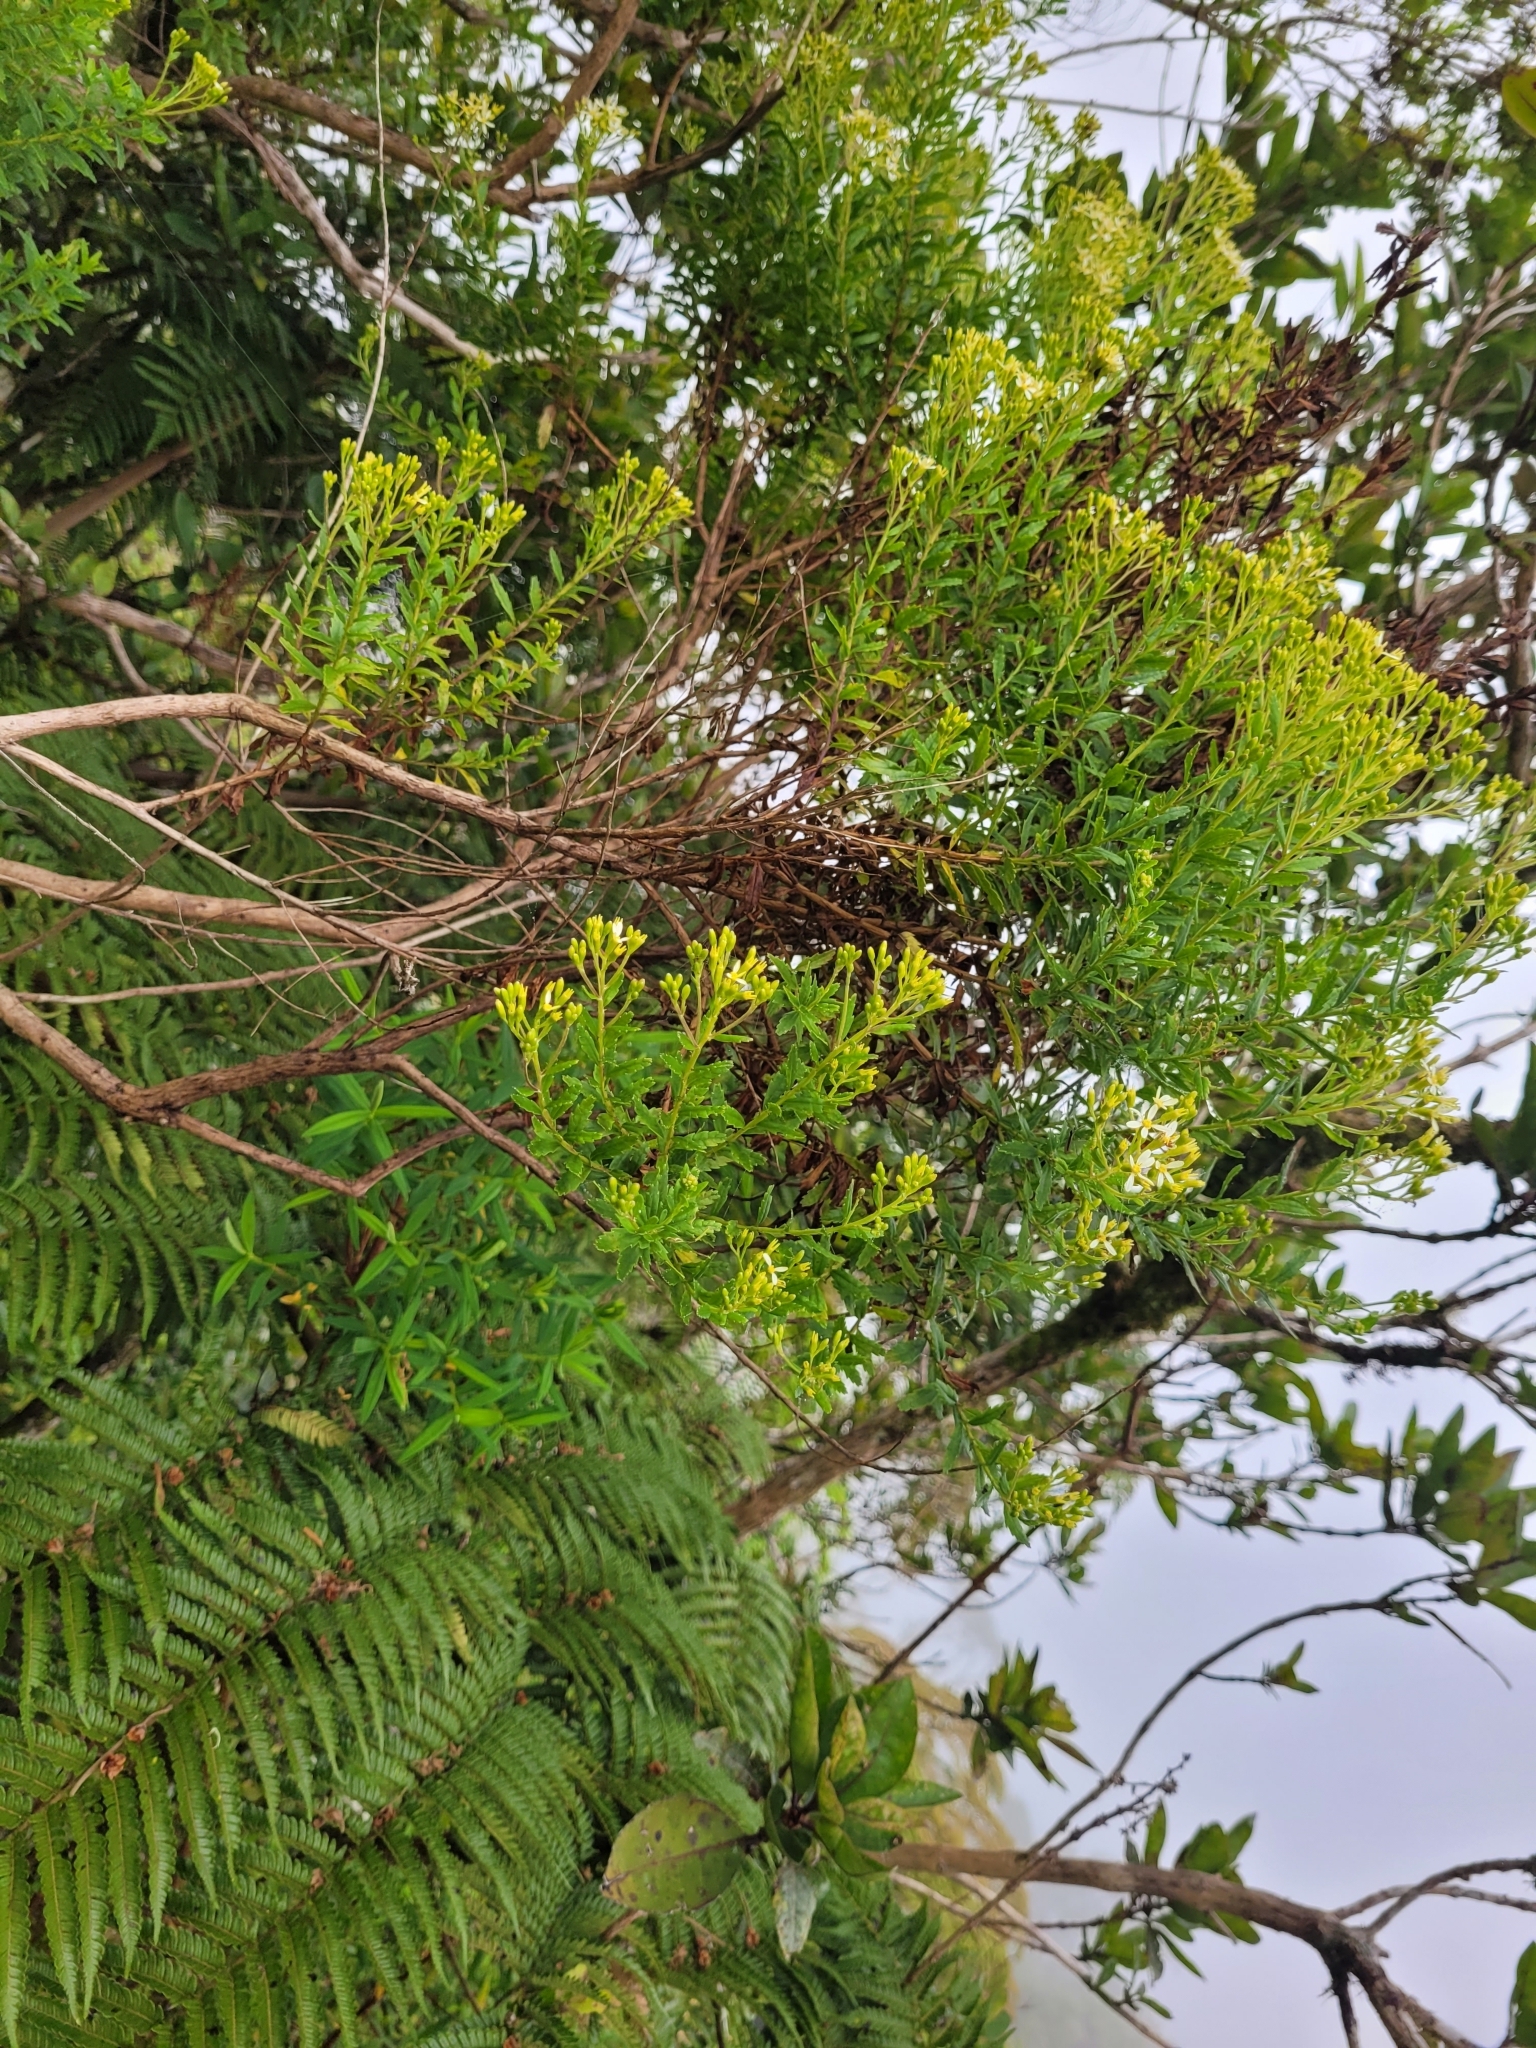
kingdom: Plantae
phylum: Tracheophyta
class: Magnoliopsida
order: Asterales
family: Asteraceae
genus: Hubertia
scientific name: Hubertia ambavilla
